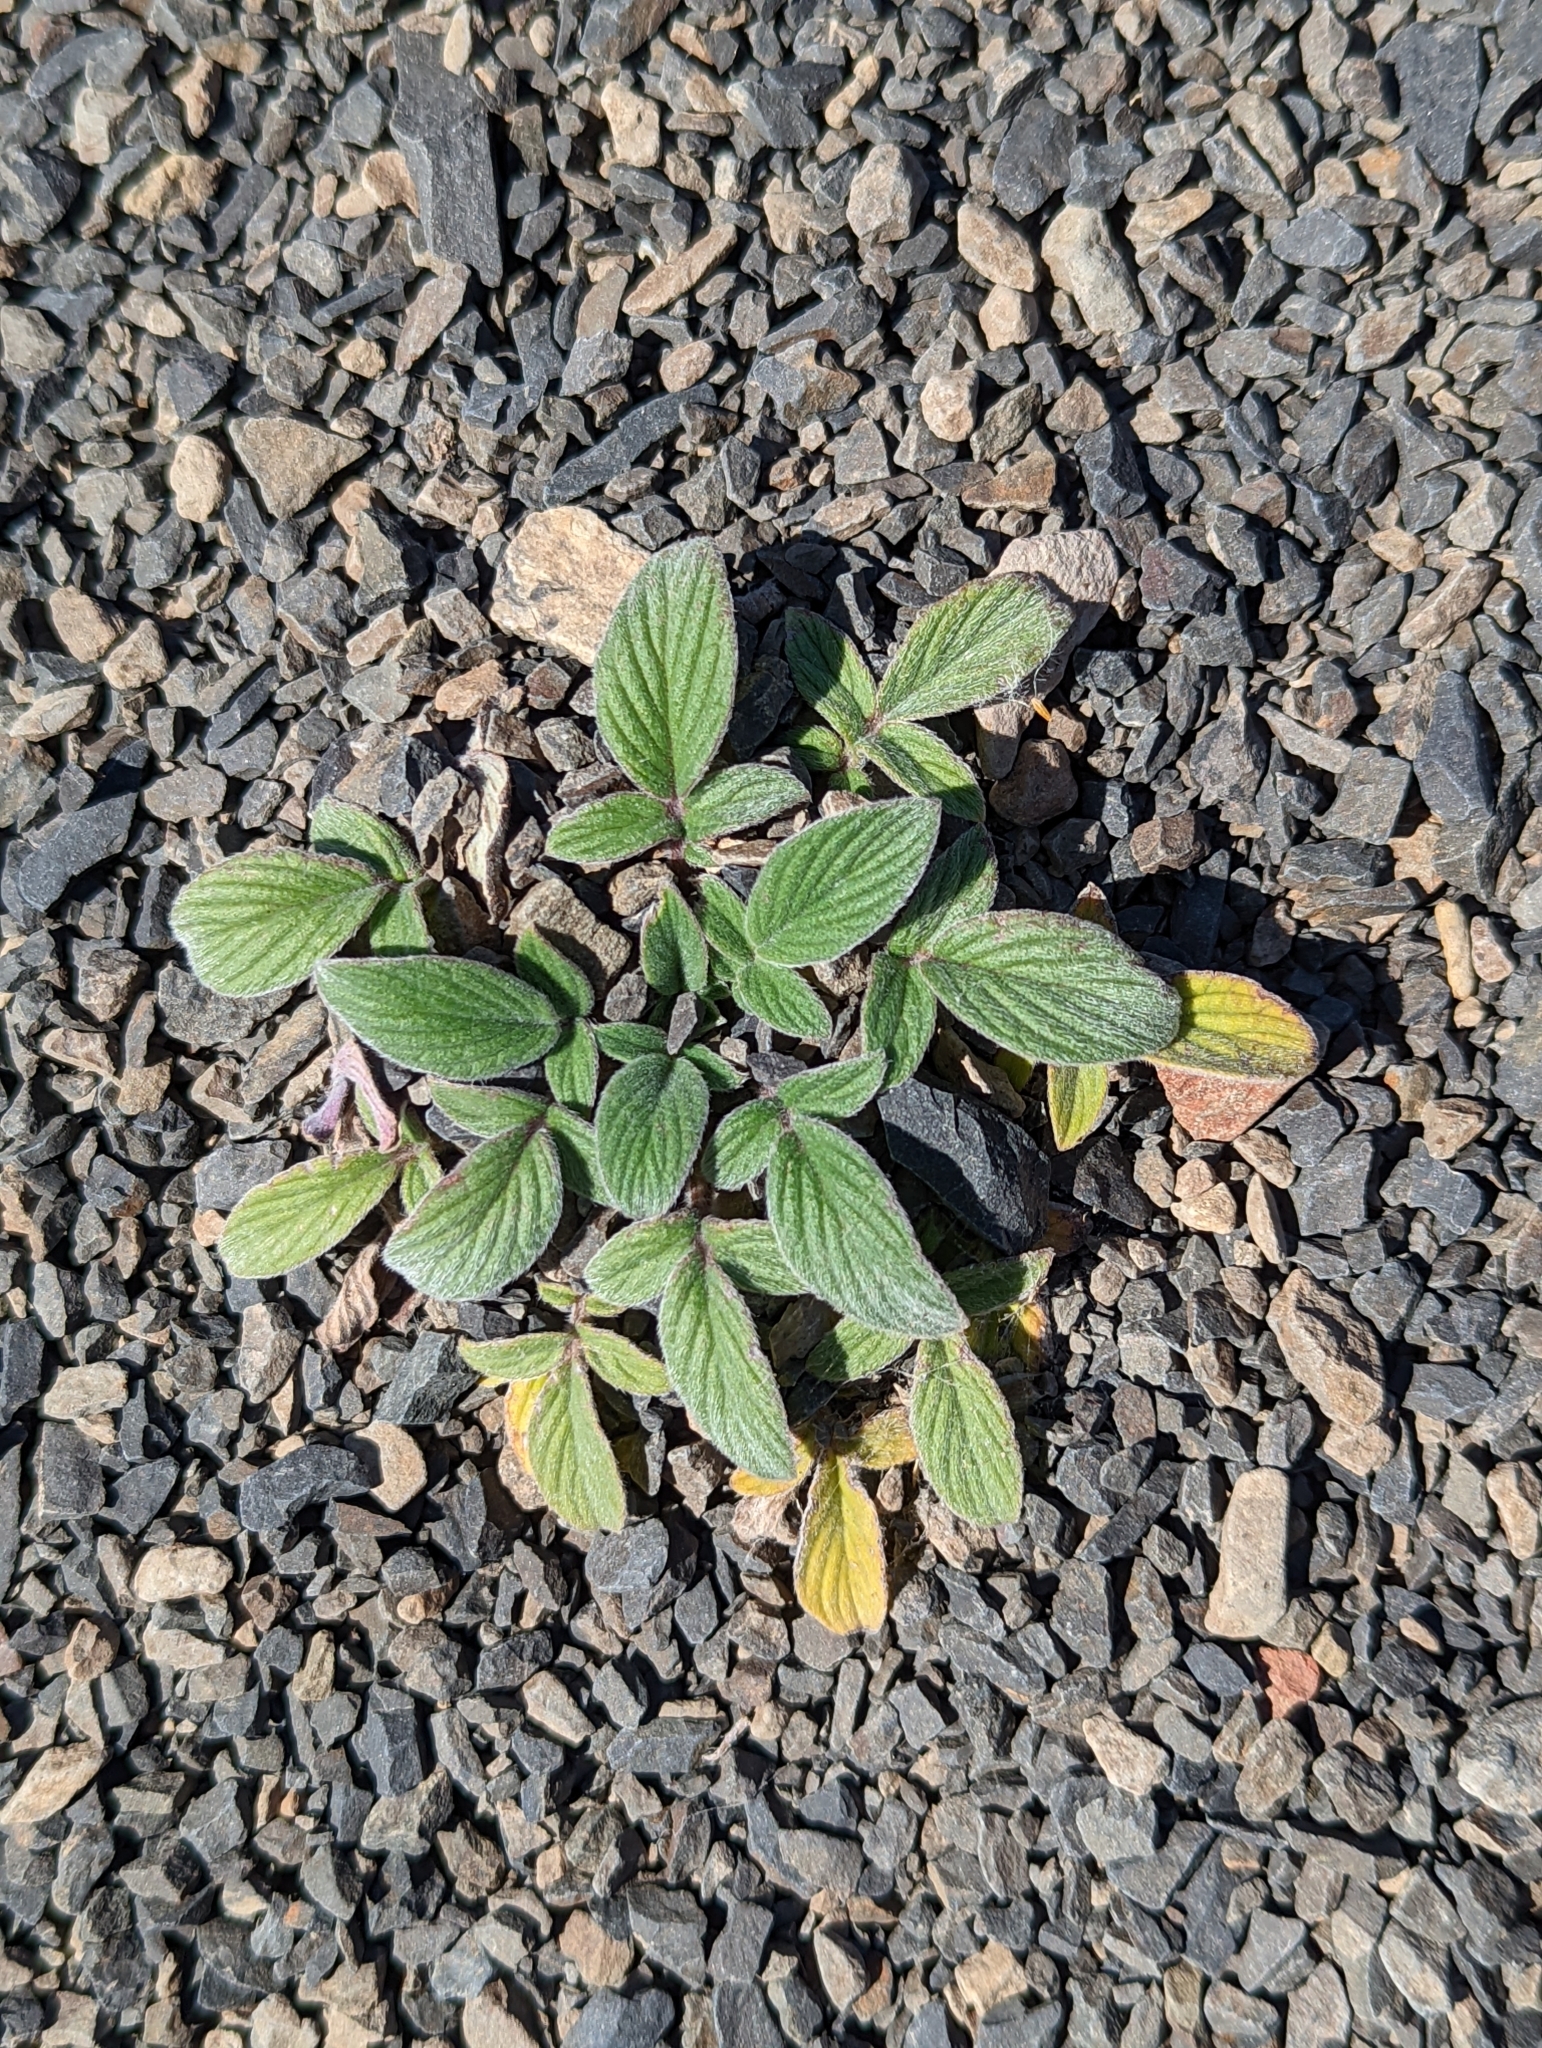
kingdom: Plantae
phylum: Tracheophyta
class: Magnoliopsida
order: Boraginales
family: Hydrophyllaceae
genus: Phacelia
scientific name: Phacelia secunda
